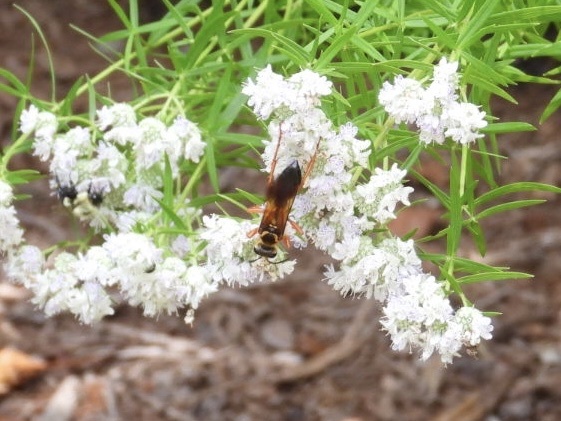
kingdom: Animalia
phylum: Arthropoda
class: Insecta
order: Hymenoptera
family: Sphecidae
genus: Sphex
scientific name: Sphex ichneumoneus
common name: Great golden digger wasp
